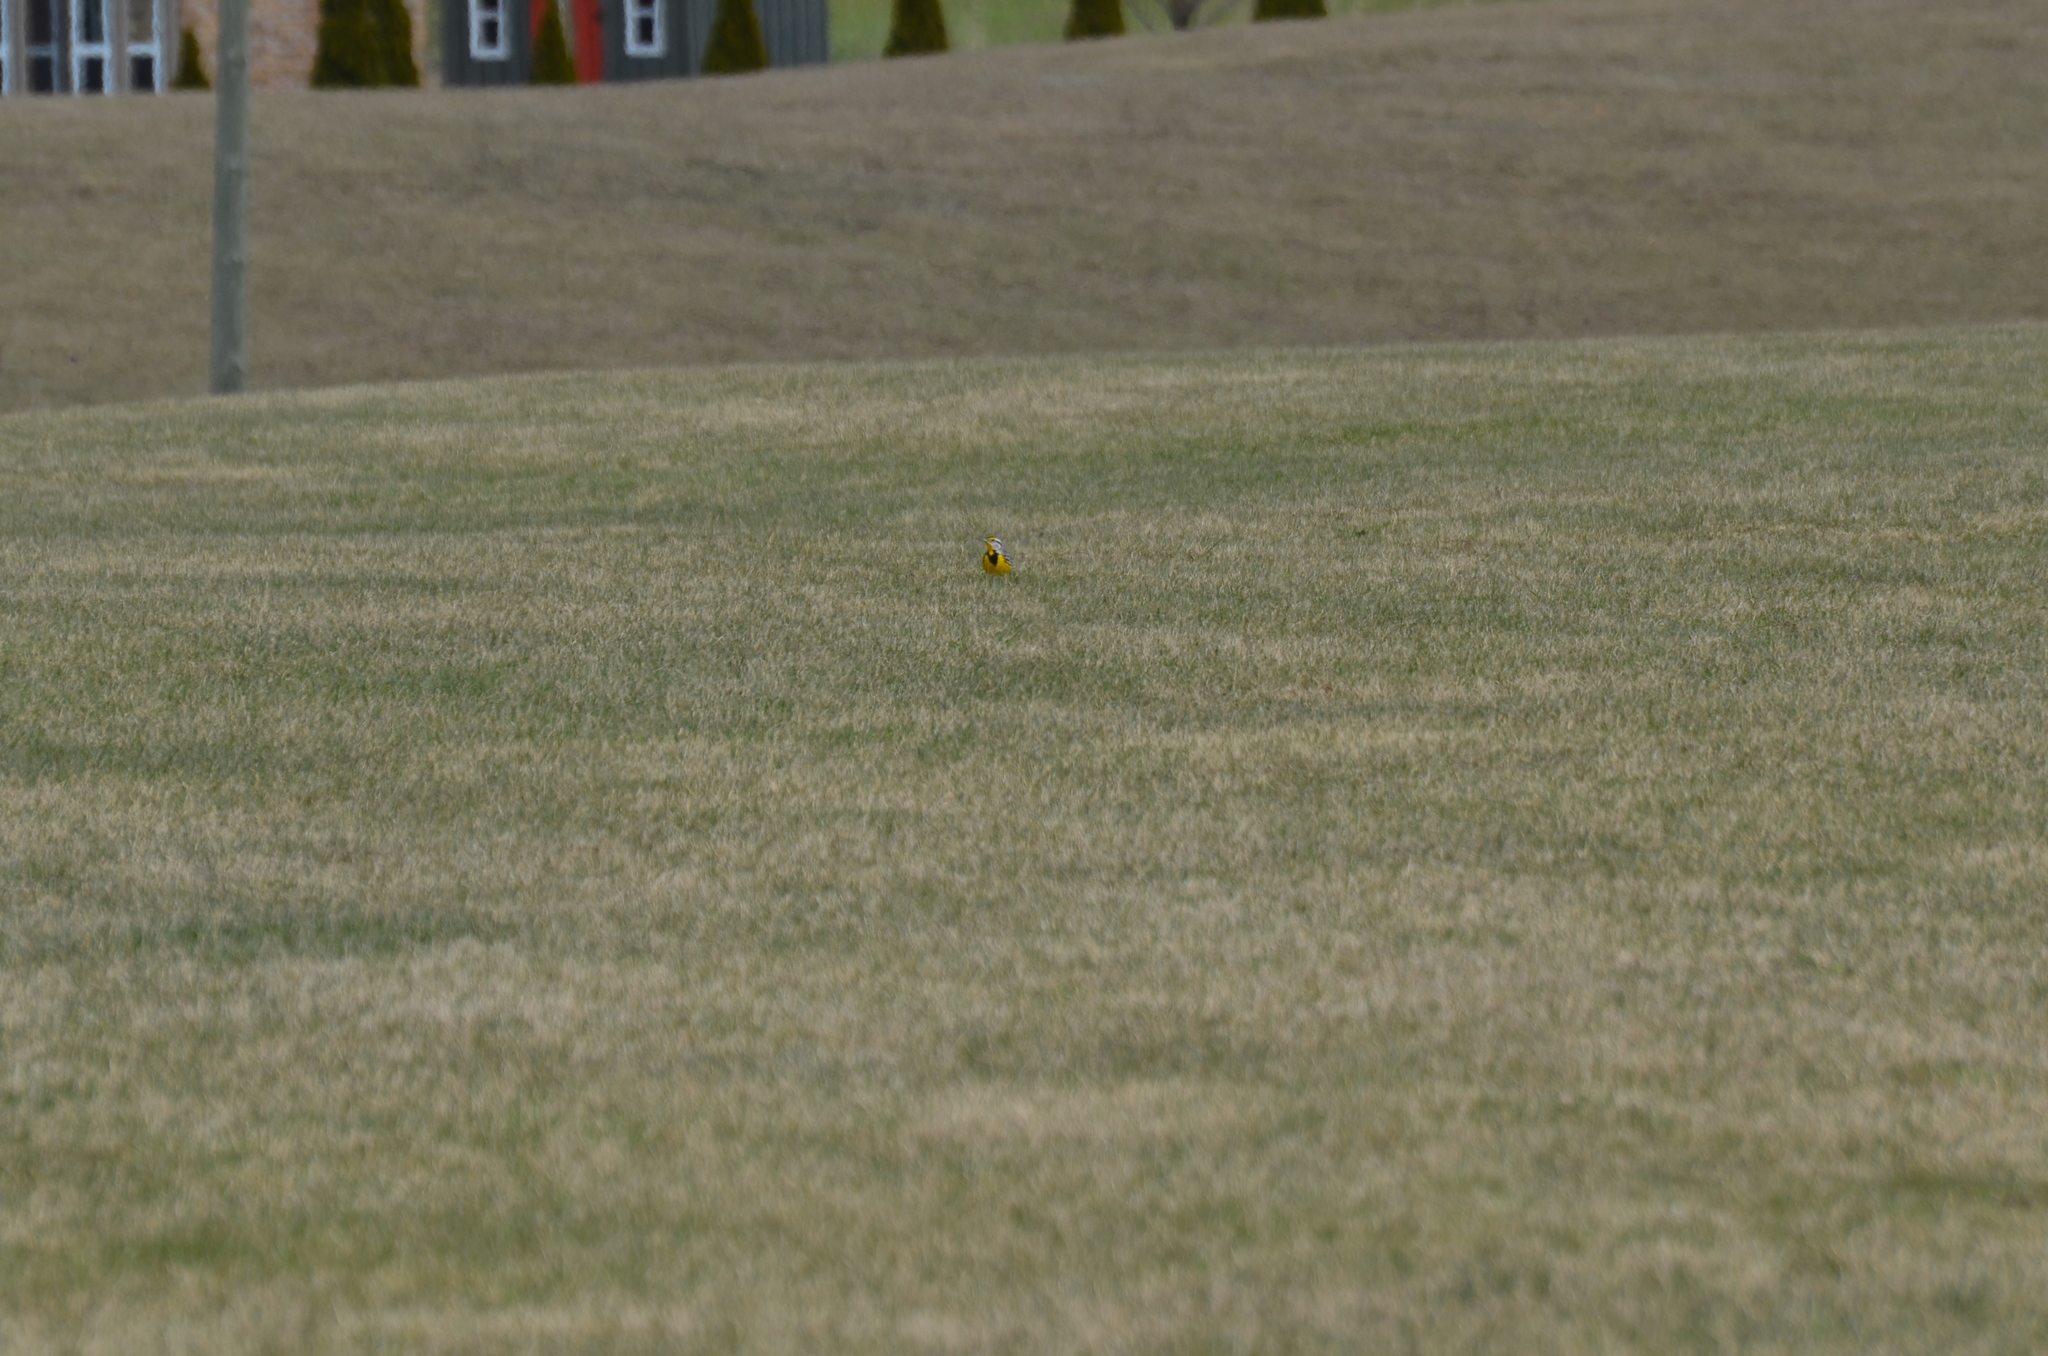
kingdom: Animalia
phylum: Chordata
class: Aves
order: Passeriformes
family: Icteridae
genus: Sturnella
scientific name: Sturnella magna
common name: Eastern meadowlark
